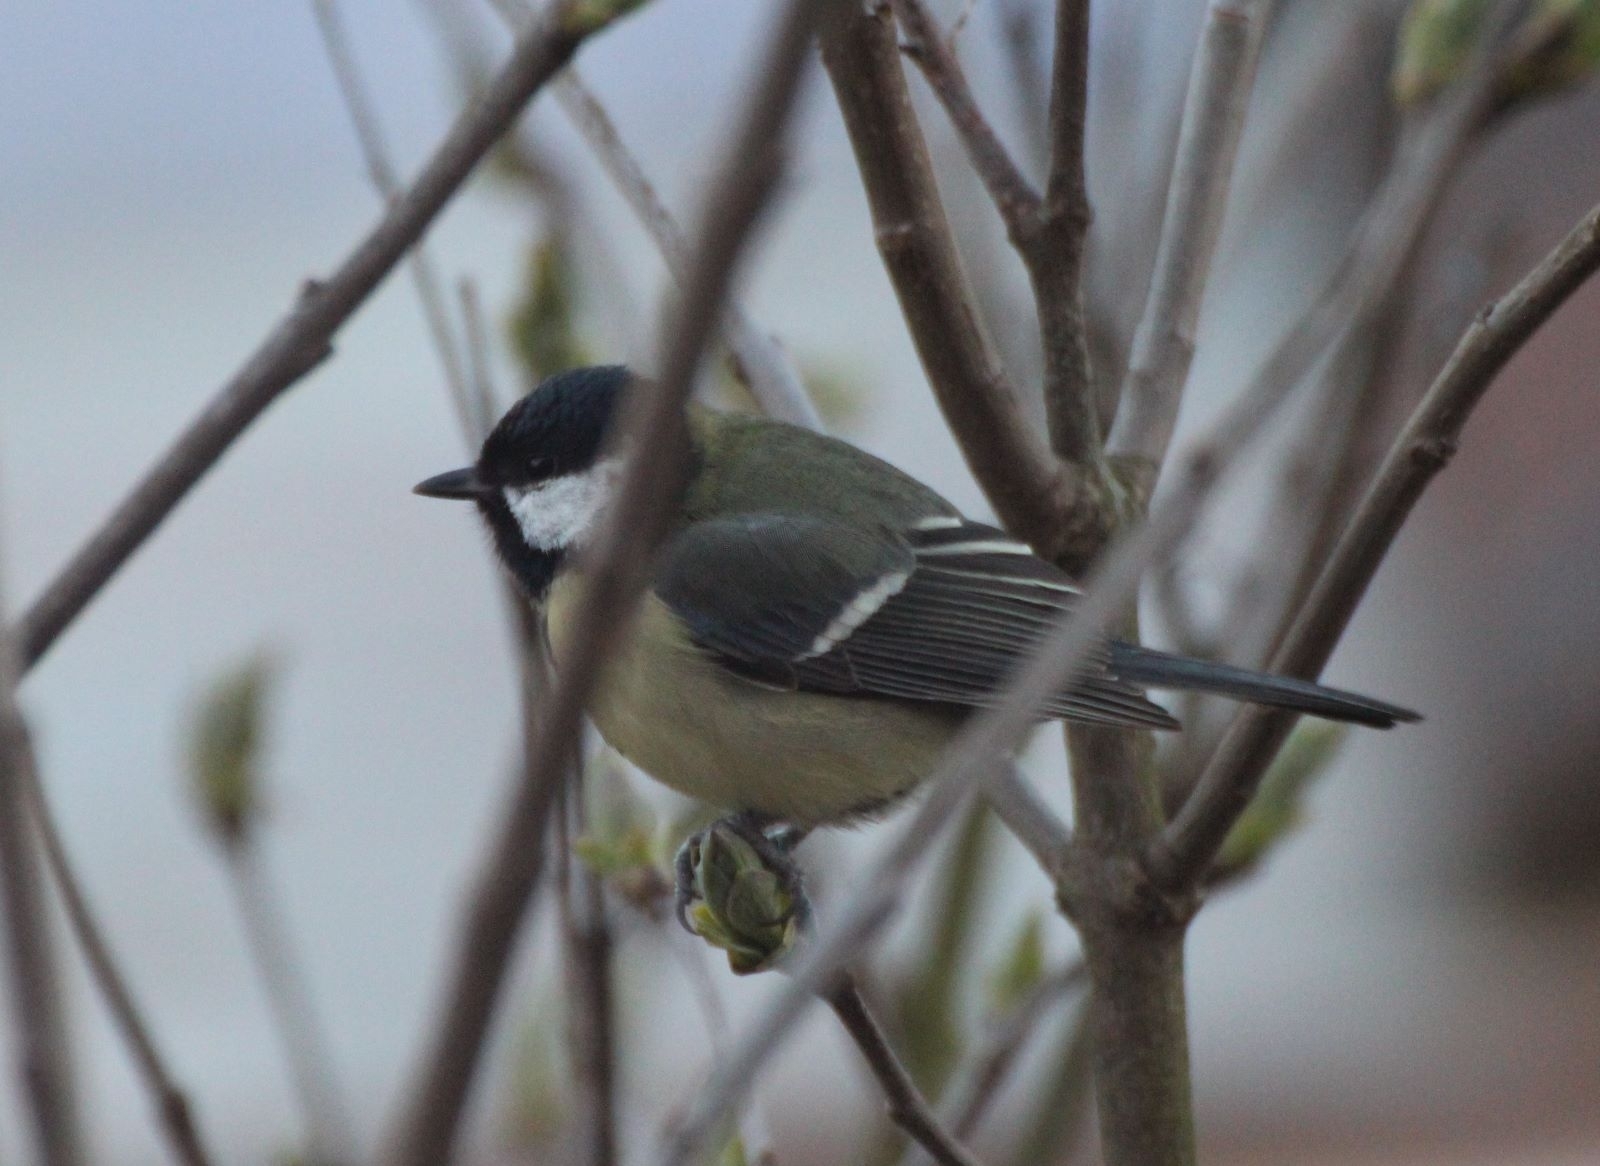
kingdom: Animalia
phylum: Chordata
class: Aves
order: Passeriformes
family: Paridae
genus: Parus
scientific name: Parus major
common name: Great tit
